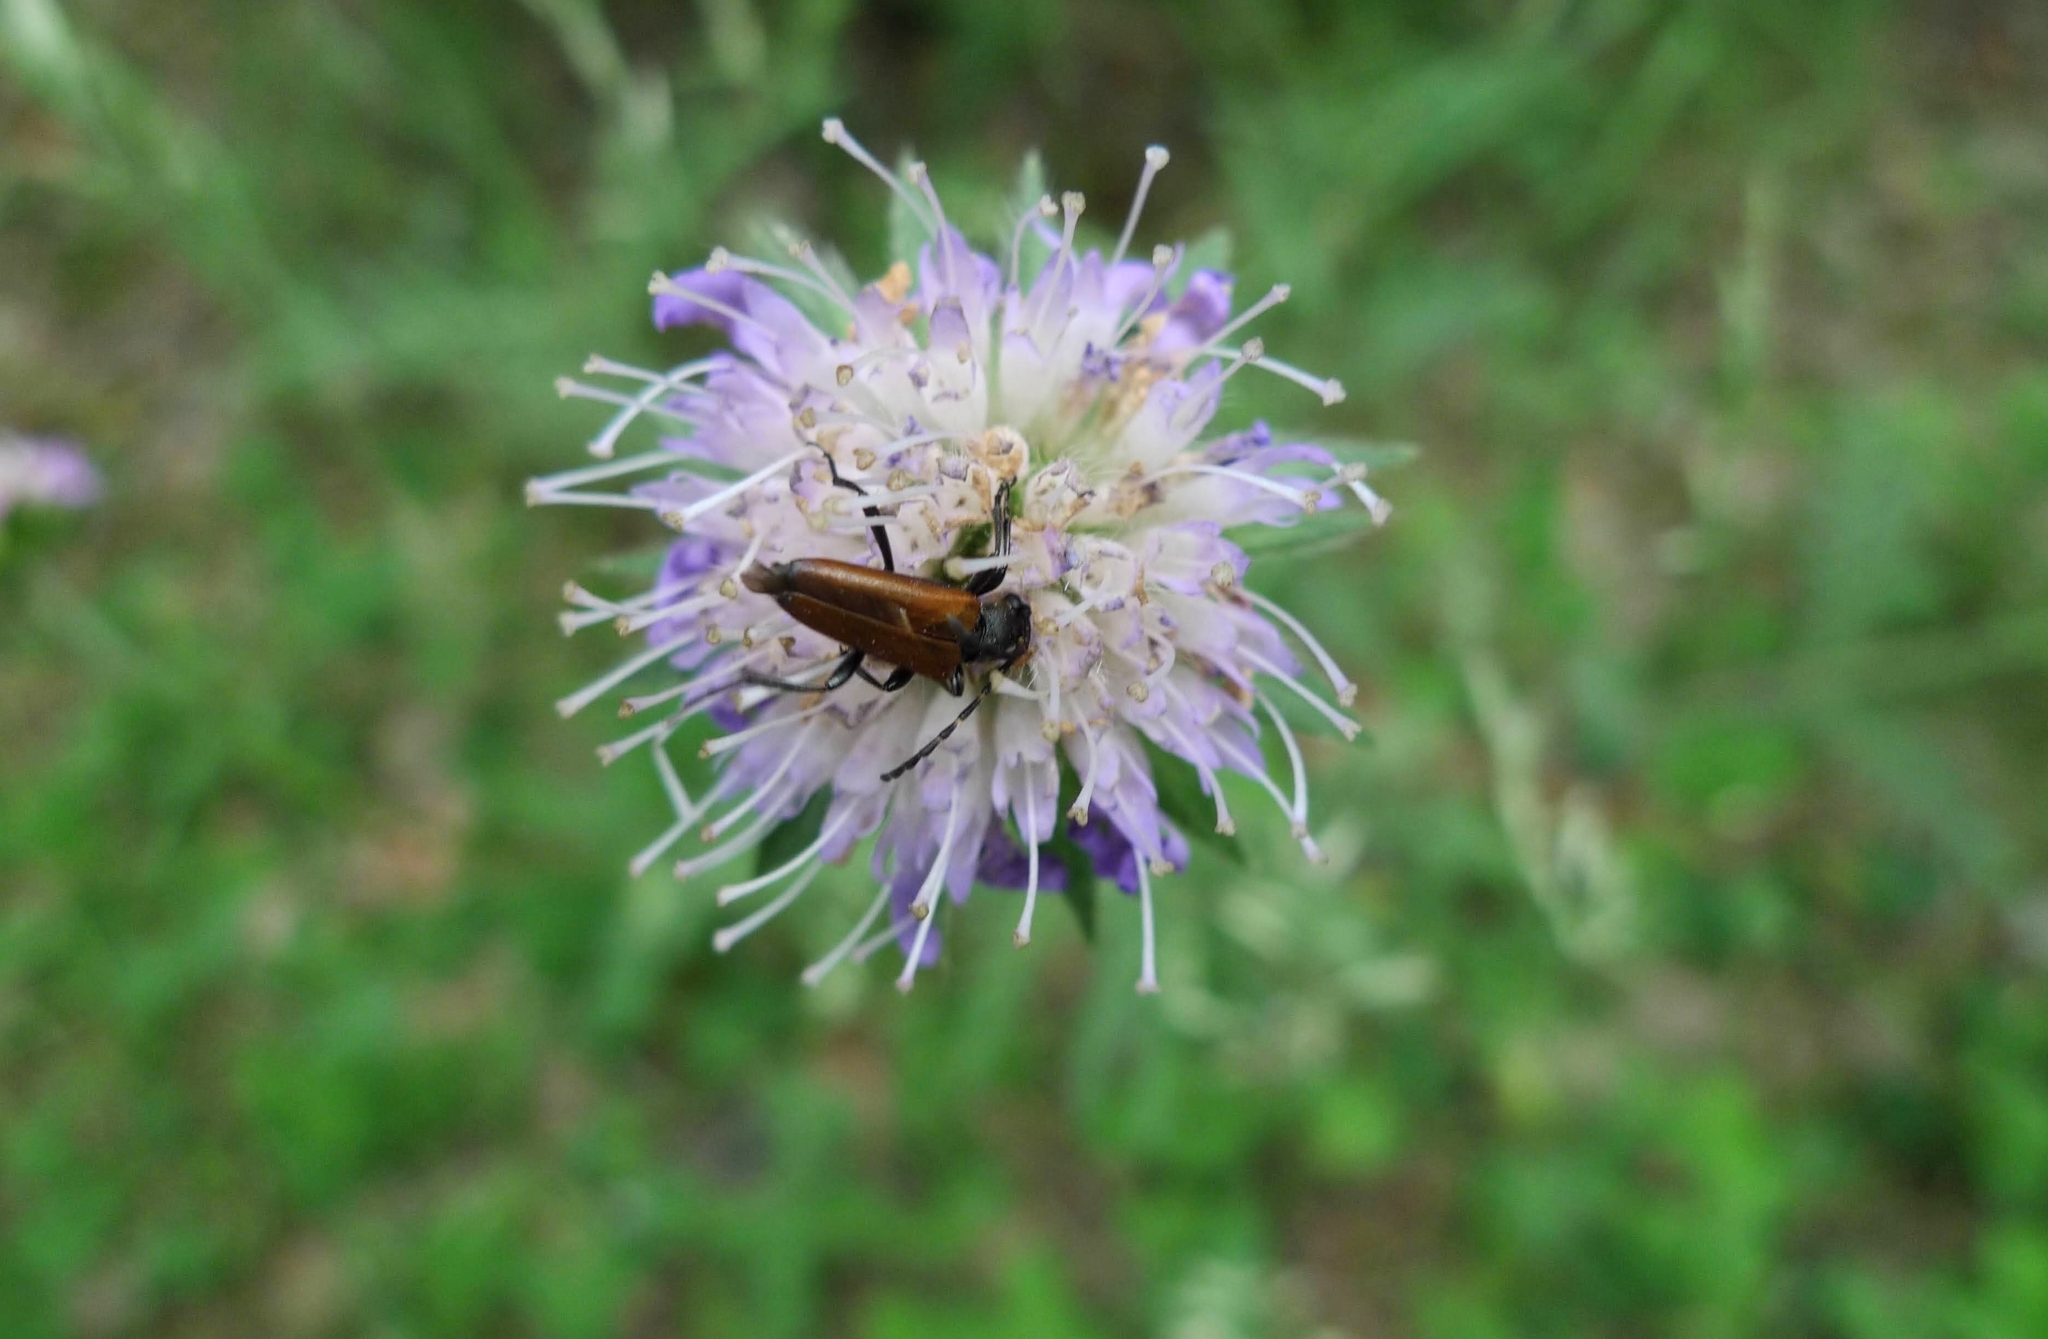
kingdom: Plantae
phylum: Tracheophyta
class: Magnoliopsida
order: Dipsacales
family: Caprifoliaceae
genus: Knautia
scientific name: Knautia arvensis
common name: Field scabiosa
